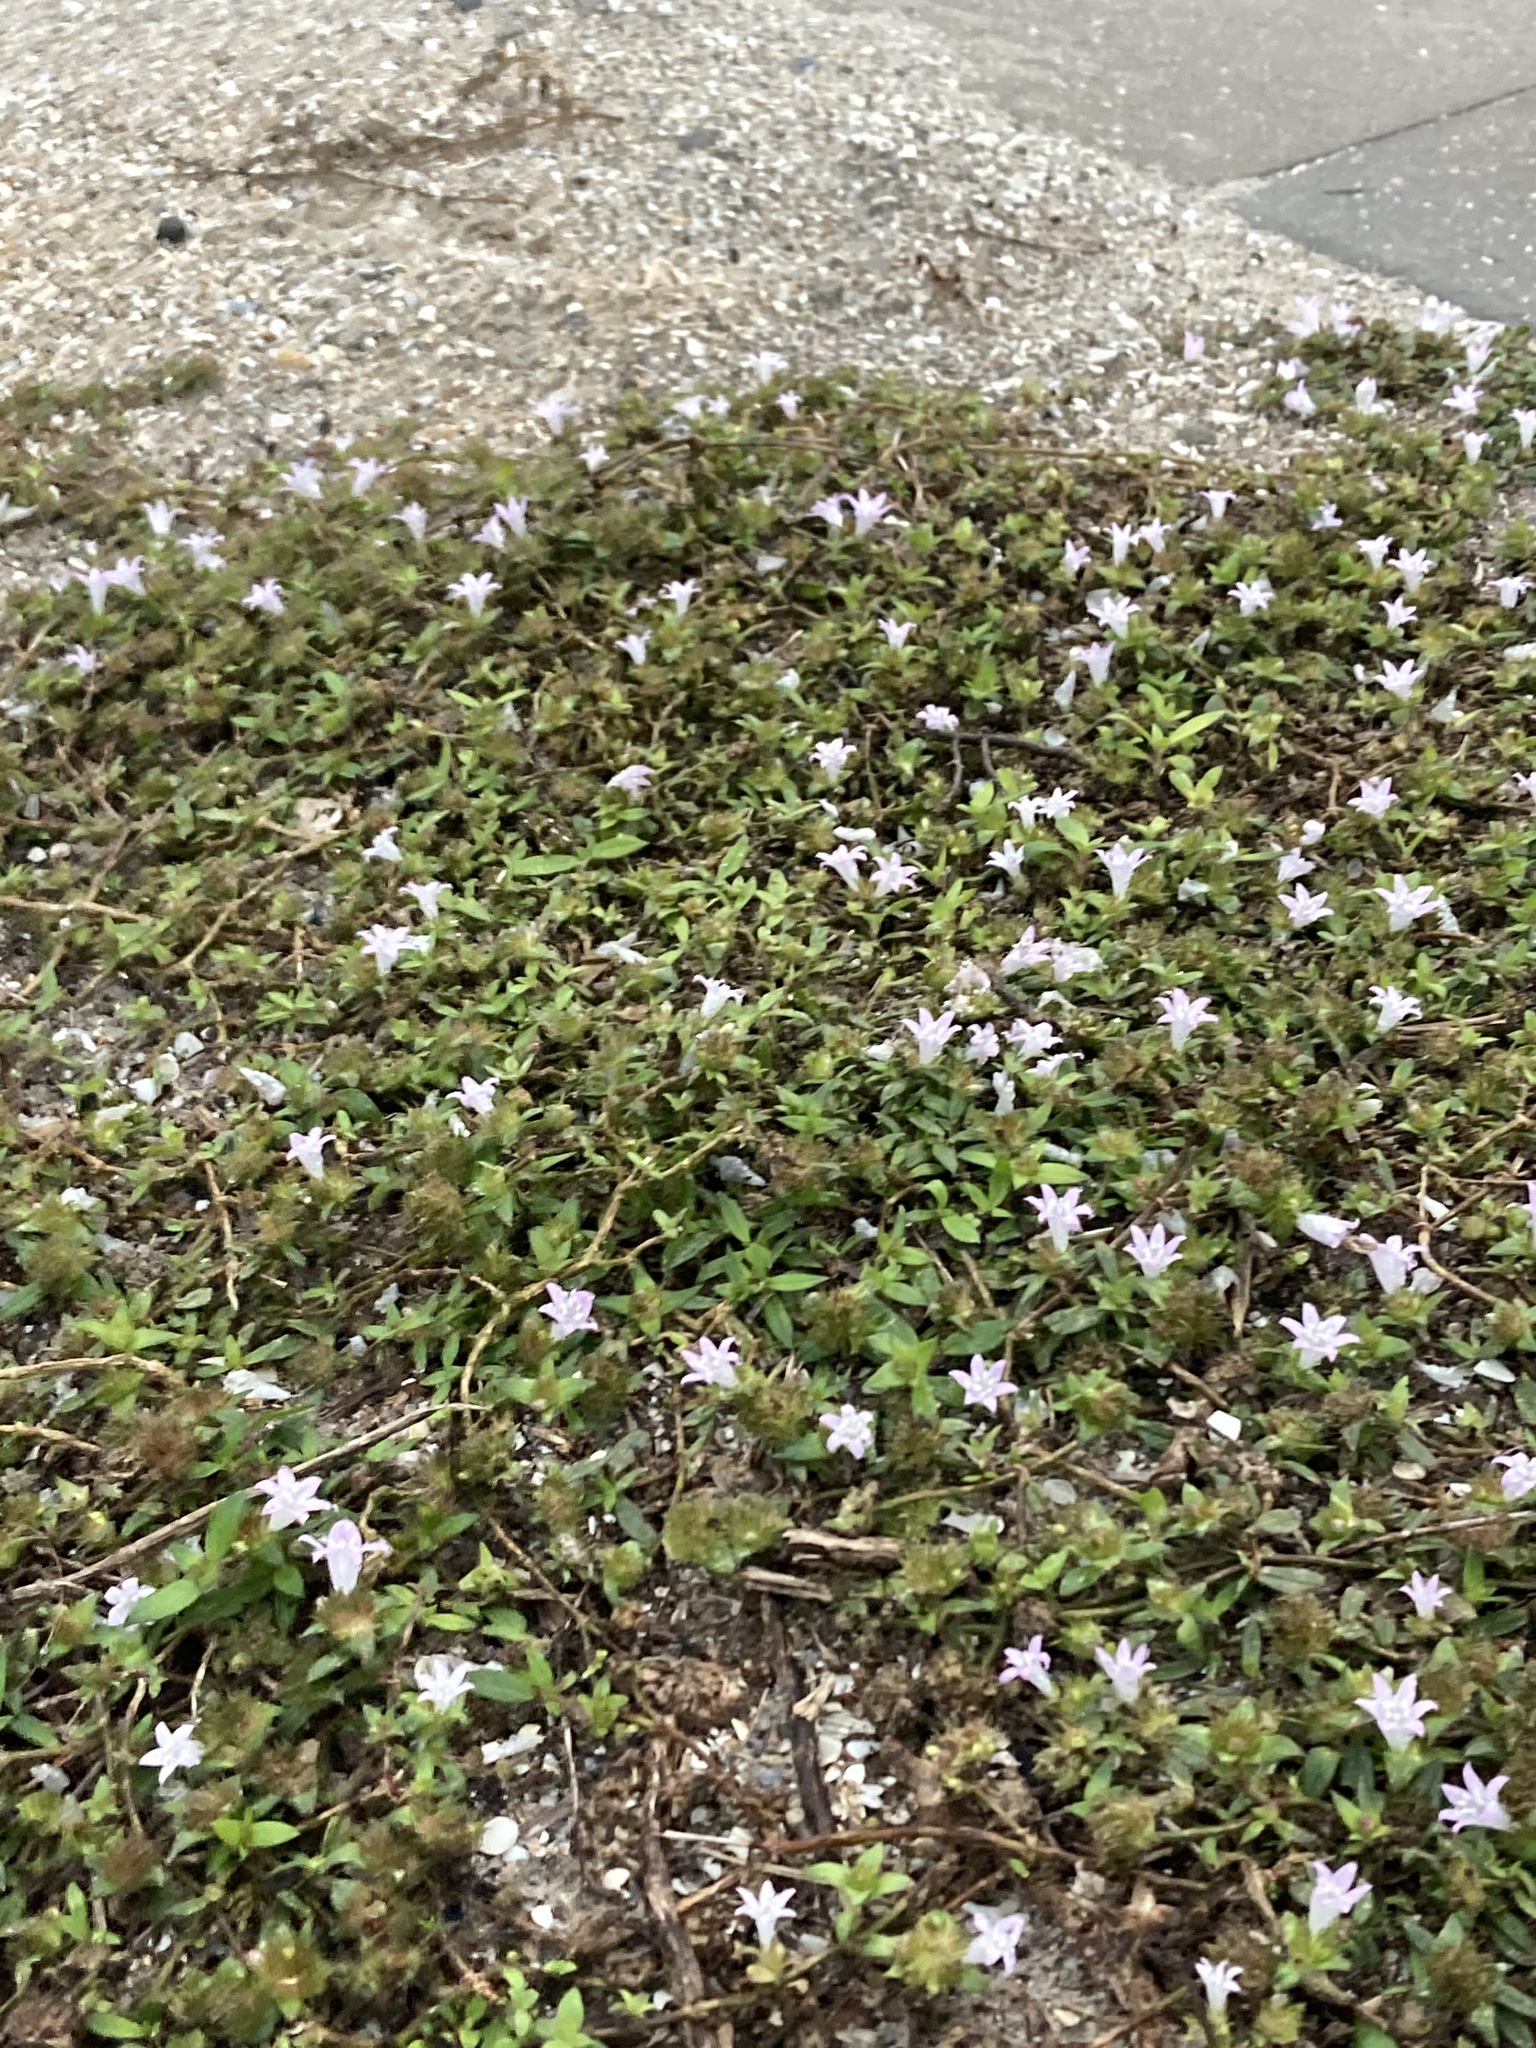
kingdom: Plantae
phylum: Tracheophyta
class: Magnoliopsida
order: Gentianales
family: Rubiaceae
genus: Richardia
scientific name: Richardia grandiflora
